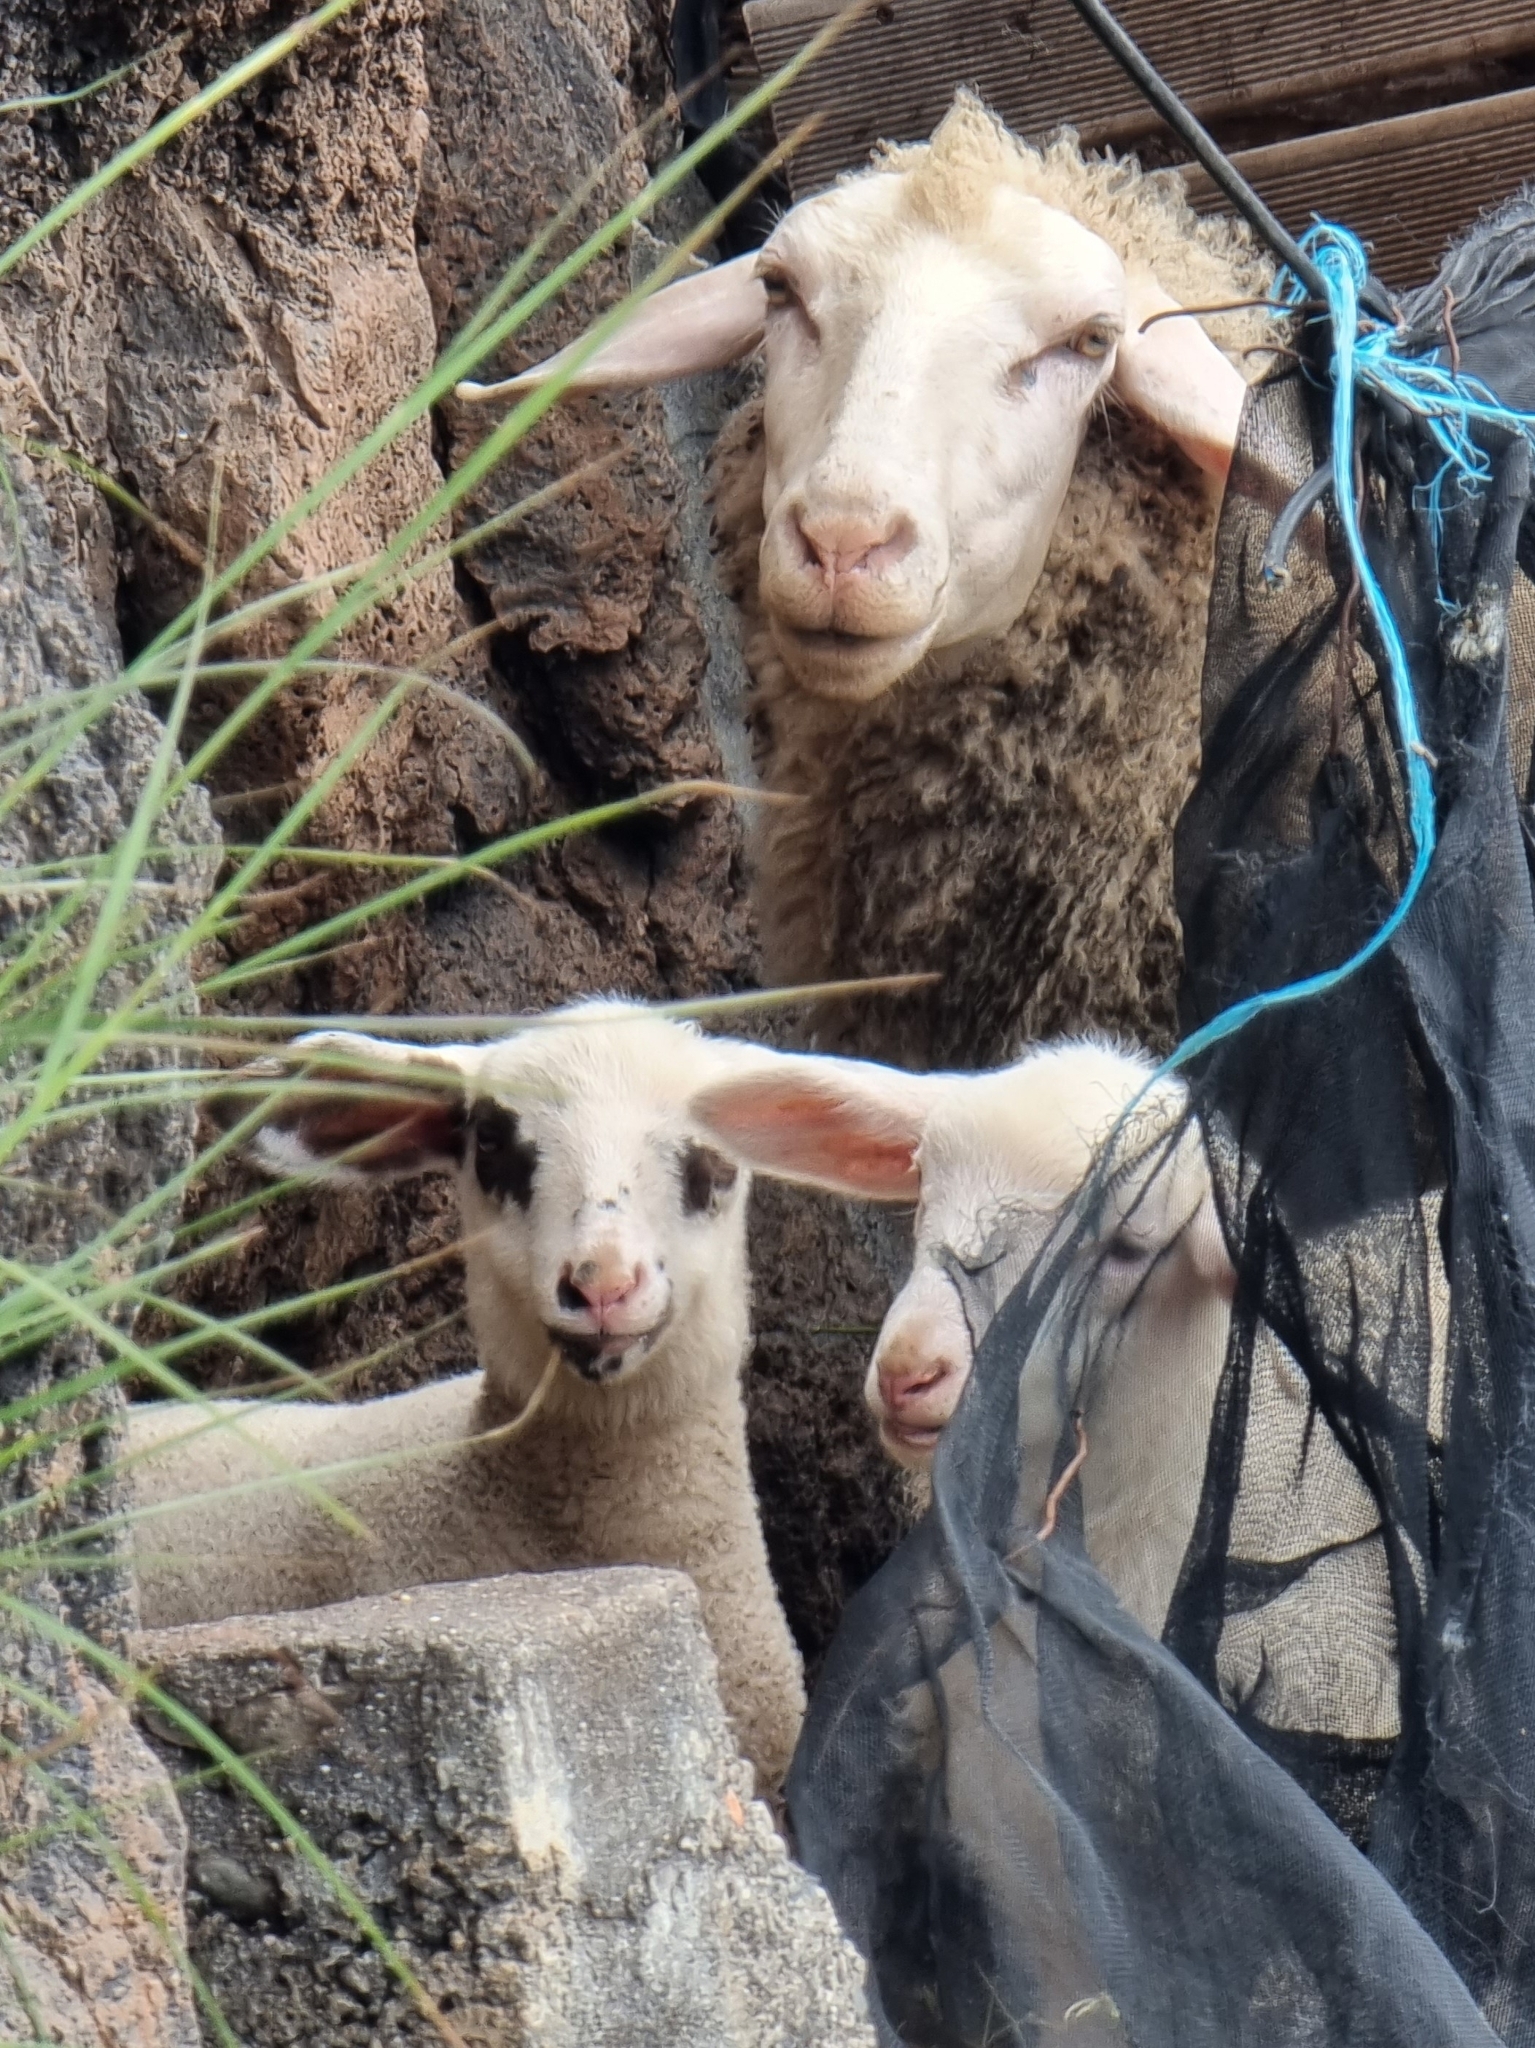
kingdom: Animalia
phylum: Chordata
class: Mammalia
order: Artiodactyla
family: Bovidae
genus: Ovis
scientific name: Ovis aries
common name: Domestic sheep
